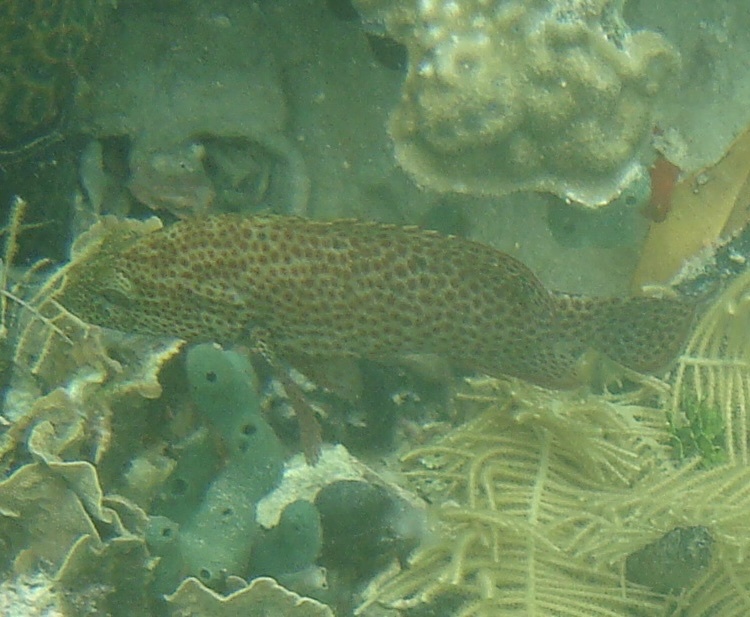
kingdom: Animalia
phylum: Chordata
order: Perciformes
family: Serranidae
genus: Cephalopholis
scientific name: Cephalopholis cruentata
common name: Graysby
